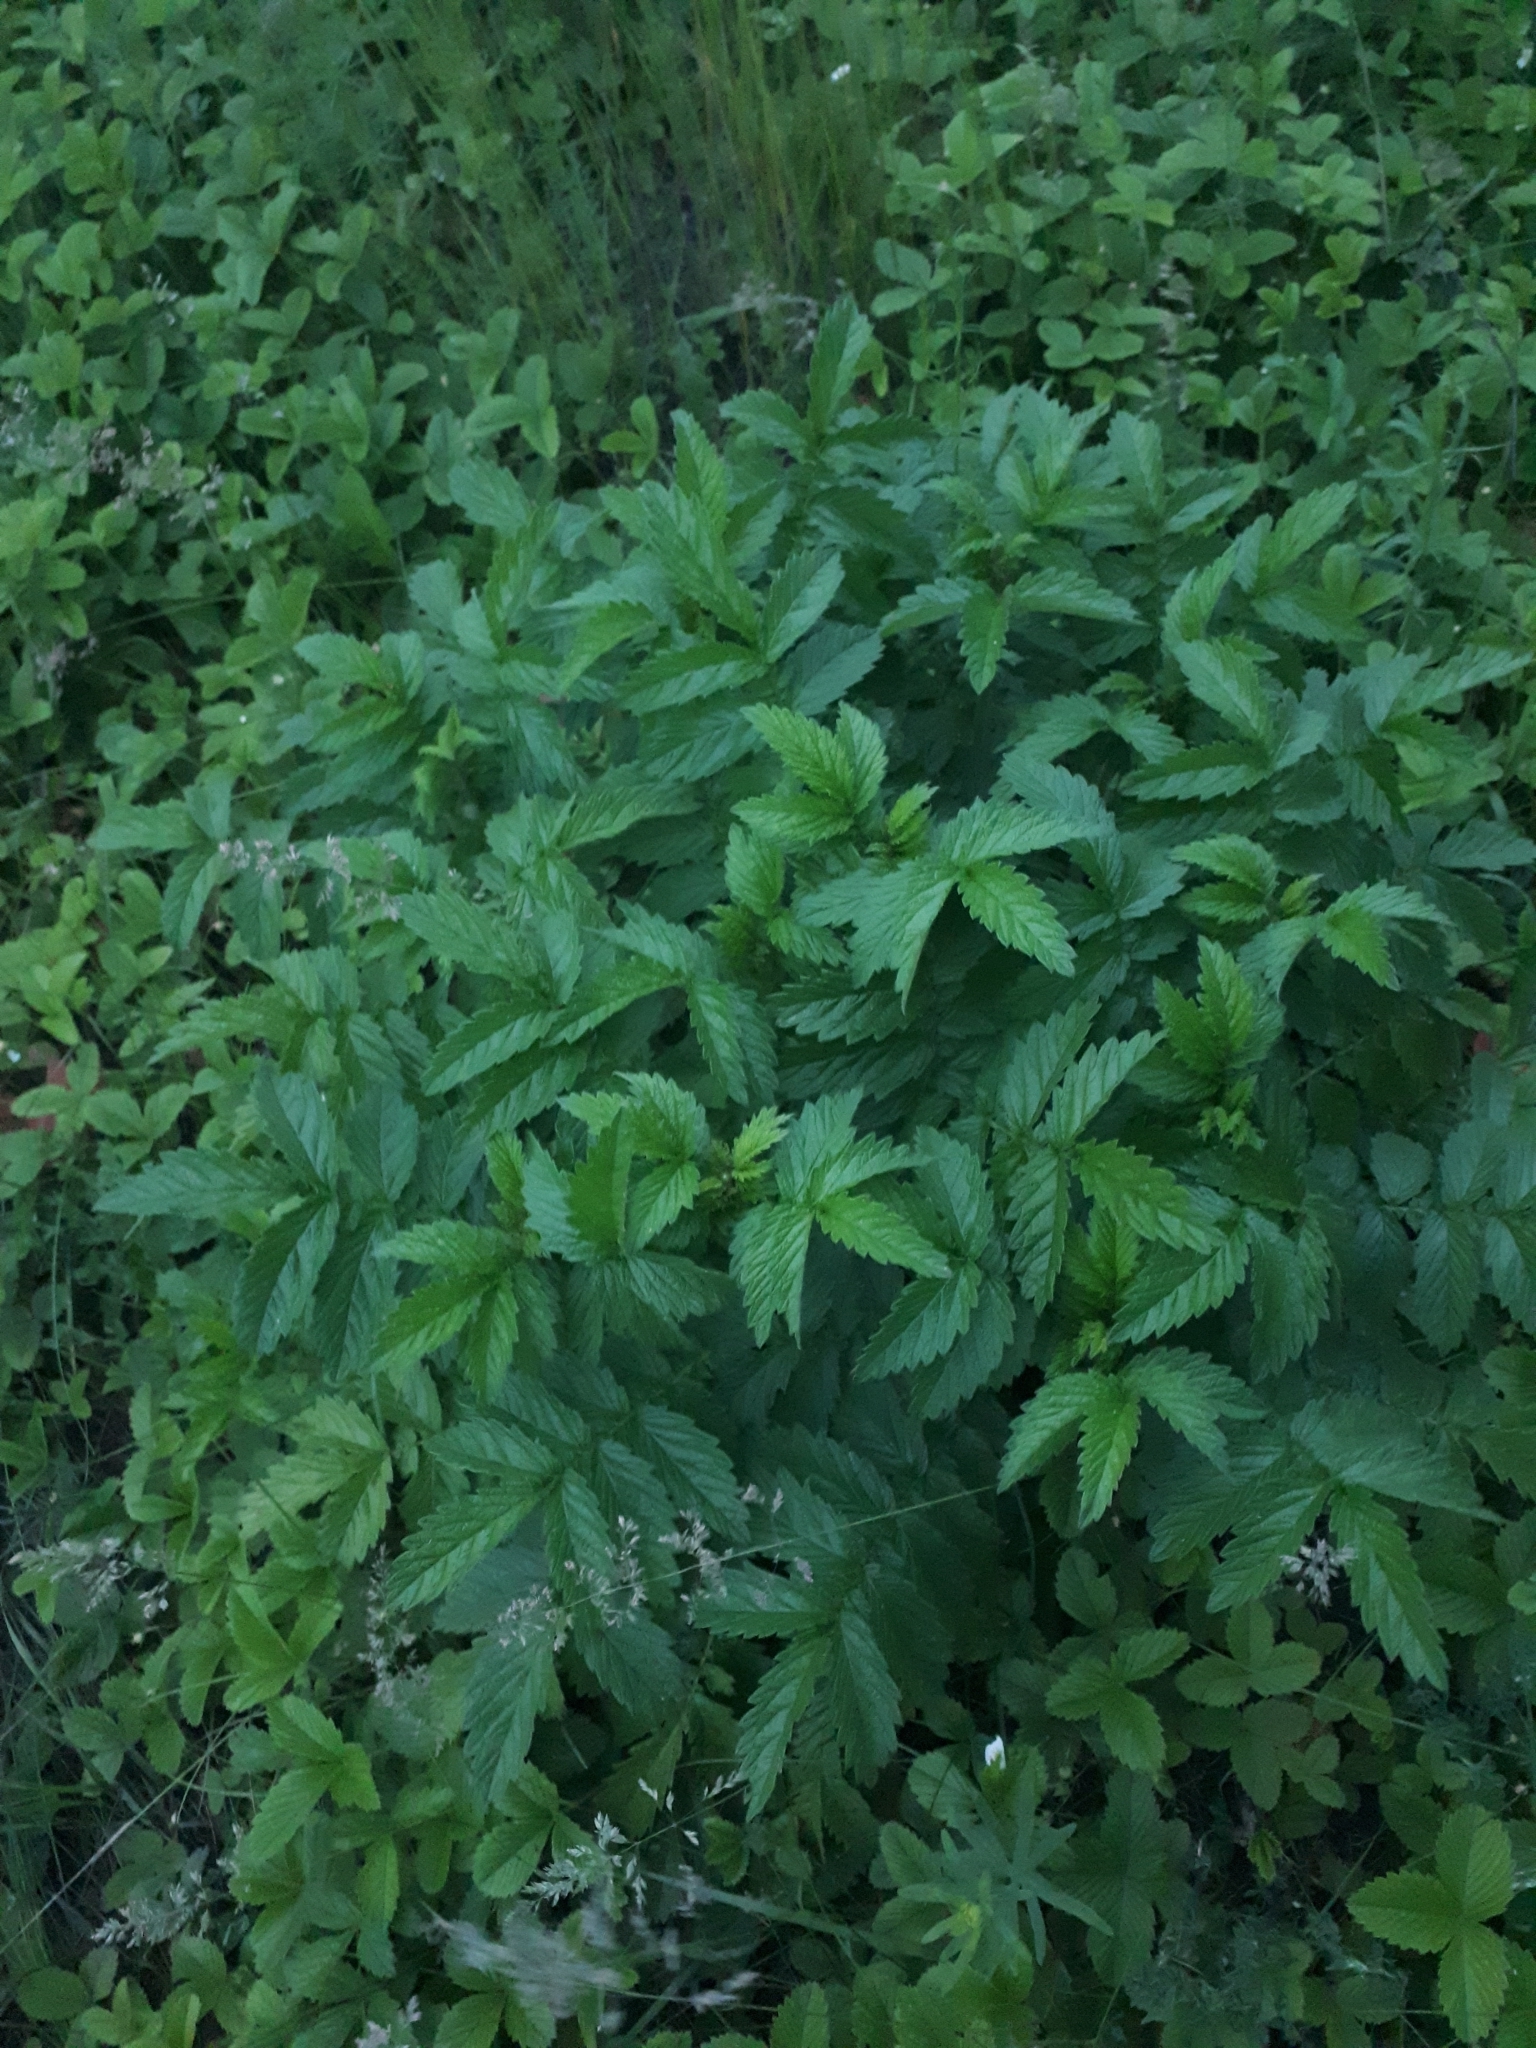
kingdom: Plantae
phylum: Tracheophyta
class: Magnoliopsida
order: Rosales
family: Rosaceae
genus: Agrimonia
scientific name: Agrimonia eupatoria
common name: Agrimony
